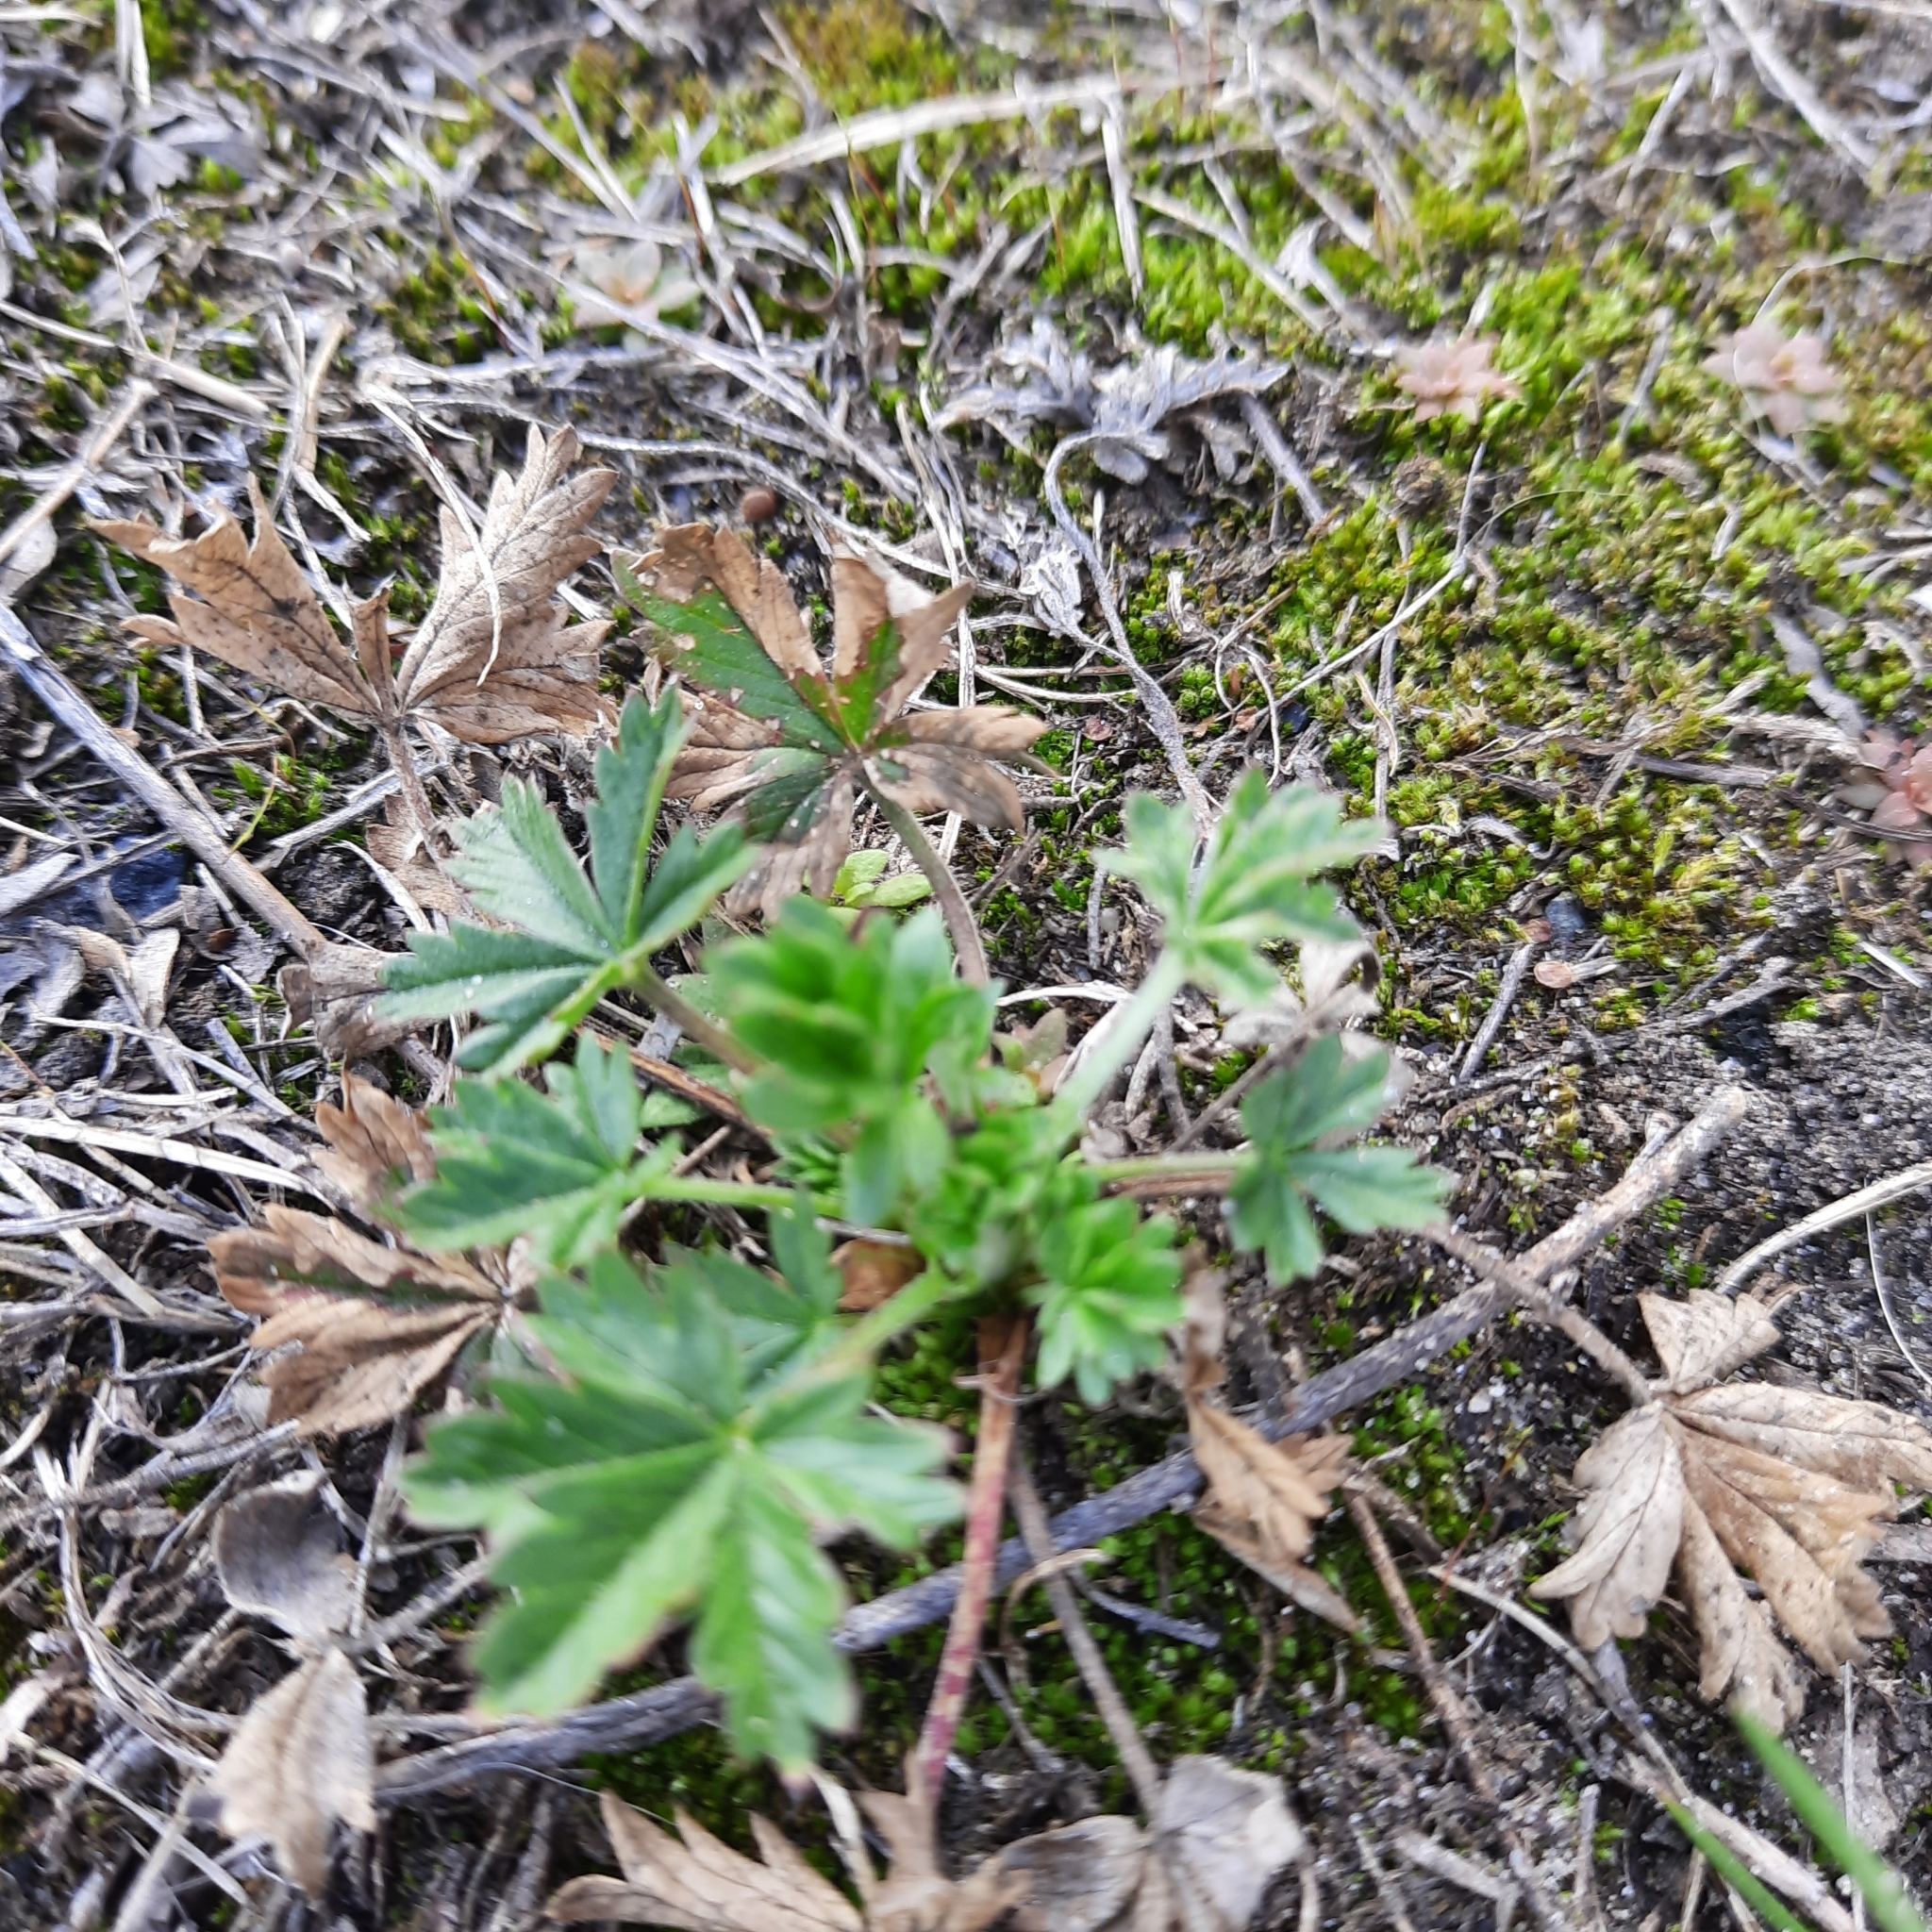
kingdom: Plantae
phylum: Tracheophyta
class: Magnoliopsida
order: Rosales
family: Rosaceae
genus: Potentilla
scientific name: Potentilla argentea
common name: Hoary cinquefoil
